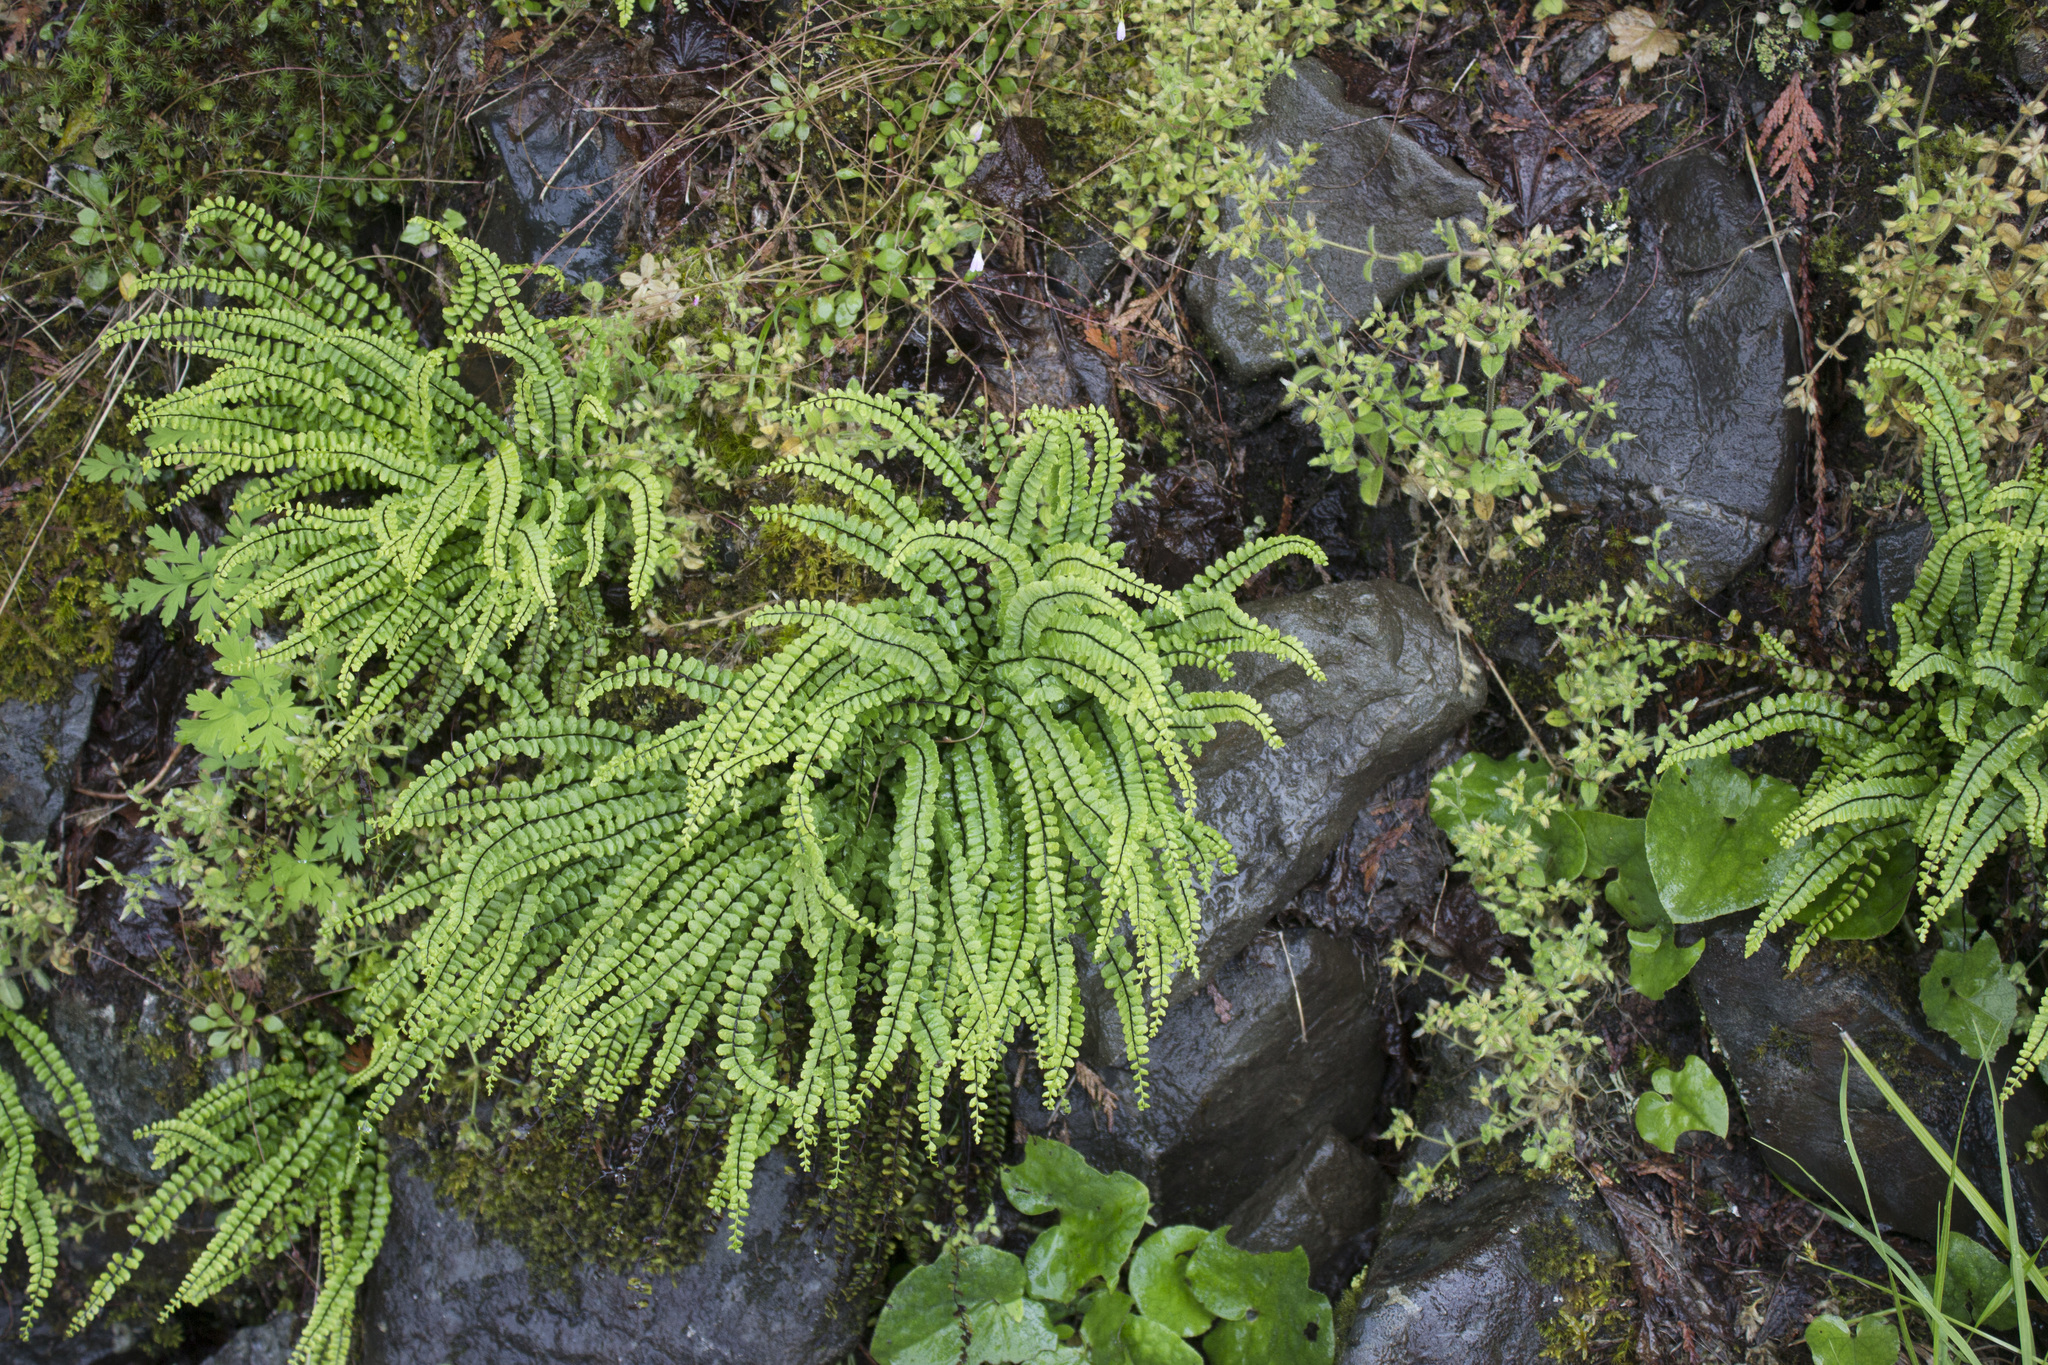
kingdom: Plantae
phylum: Tracheophyta
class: Polypodiopsida
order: Polypodiales
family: Aspleniaceae
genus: Asplenium
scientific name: Asplenium trichomanes
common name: Maidenhair spleenwort
